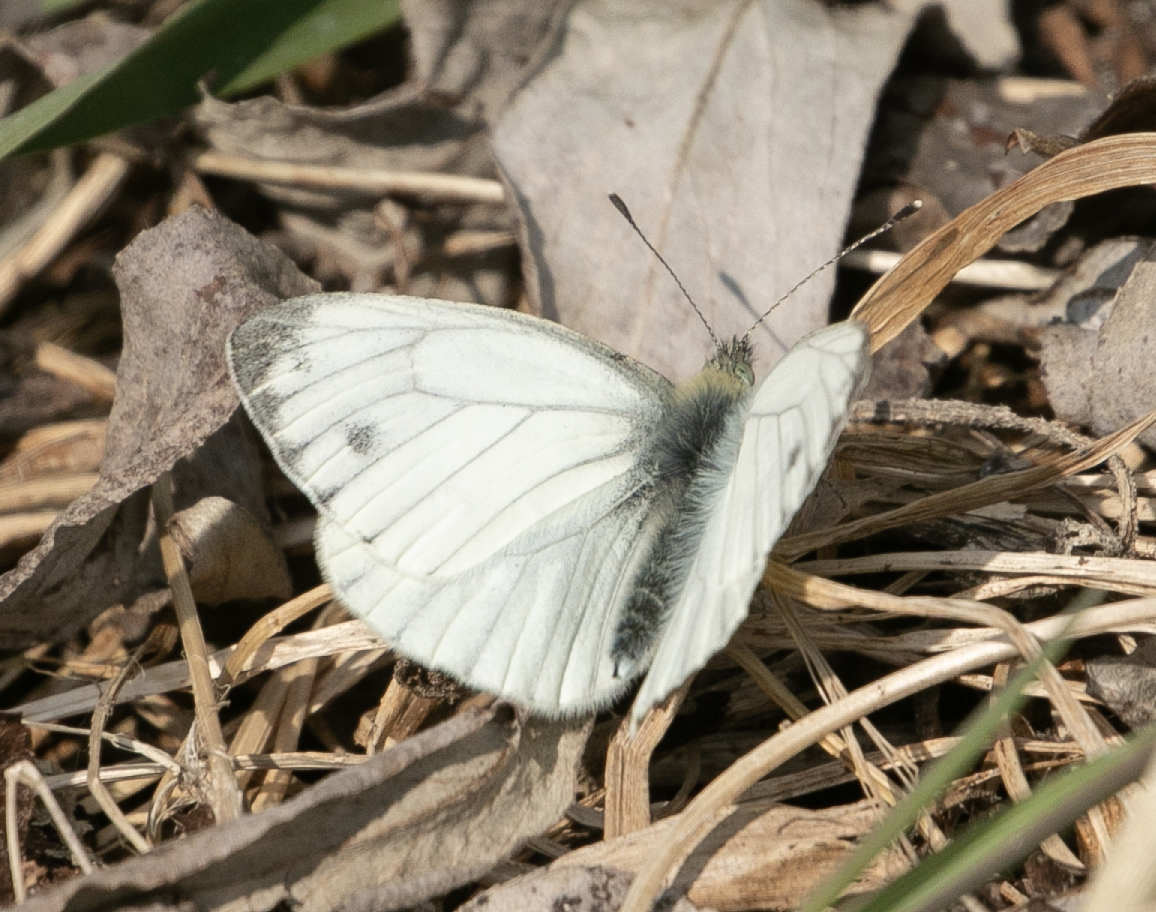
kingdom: Animalia
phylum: Arthropoda
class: Insecta
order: Lepidoptera
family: Pieridae
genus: Pieris
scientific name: Pieris napi
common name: Green-veined white
